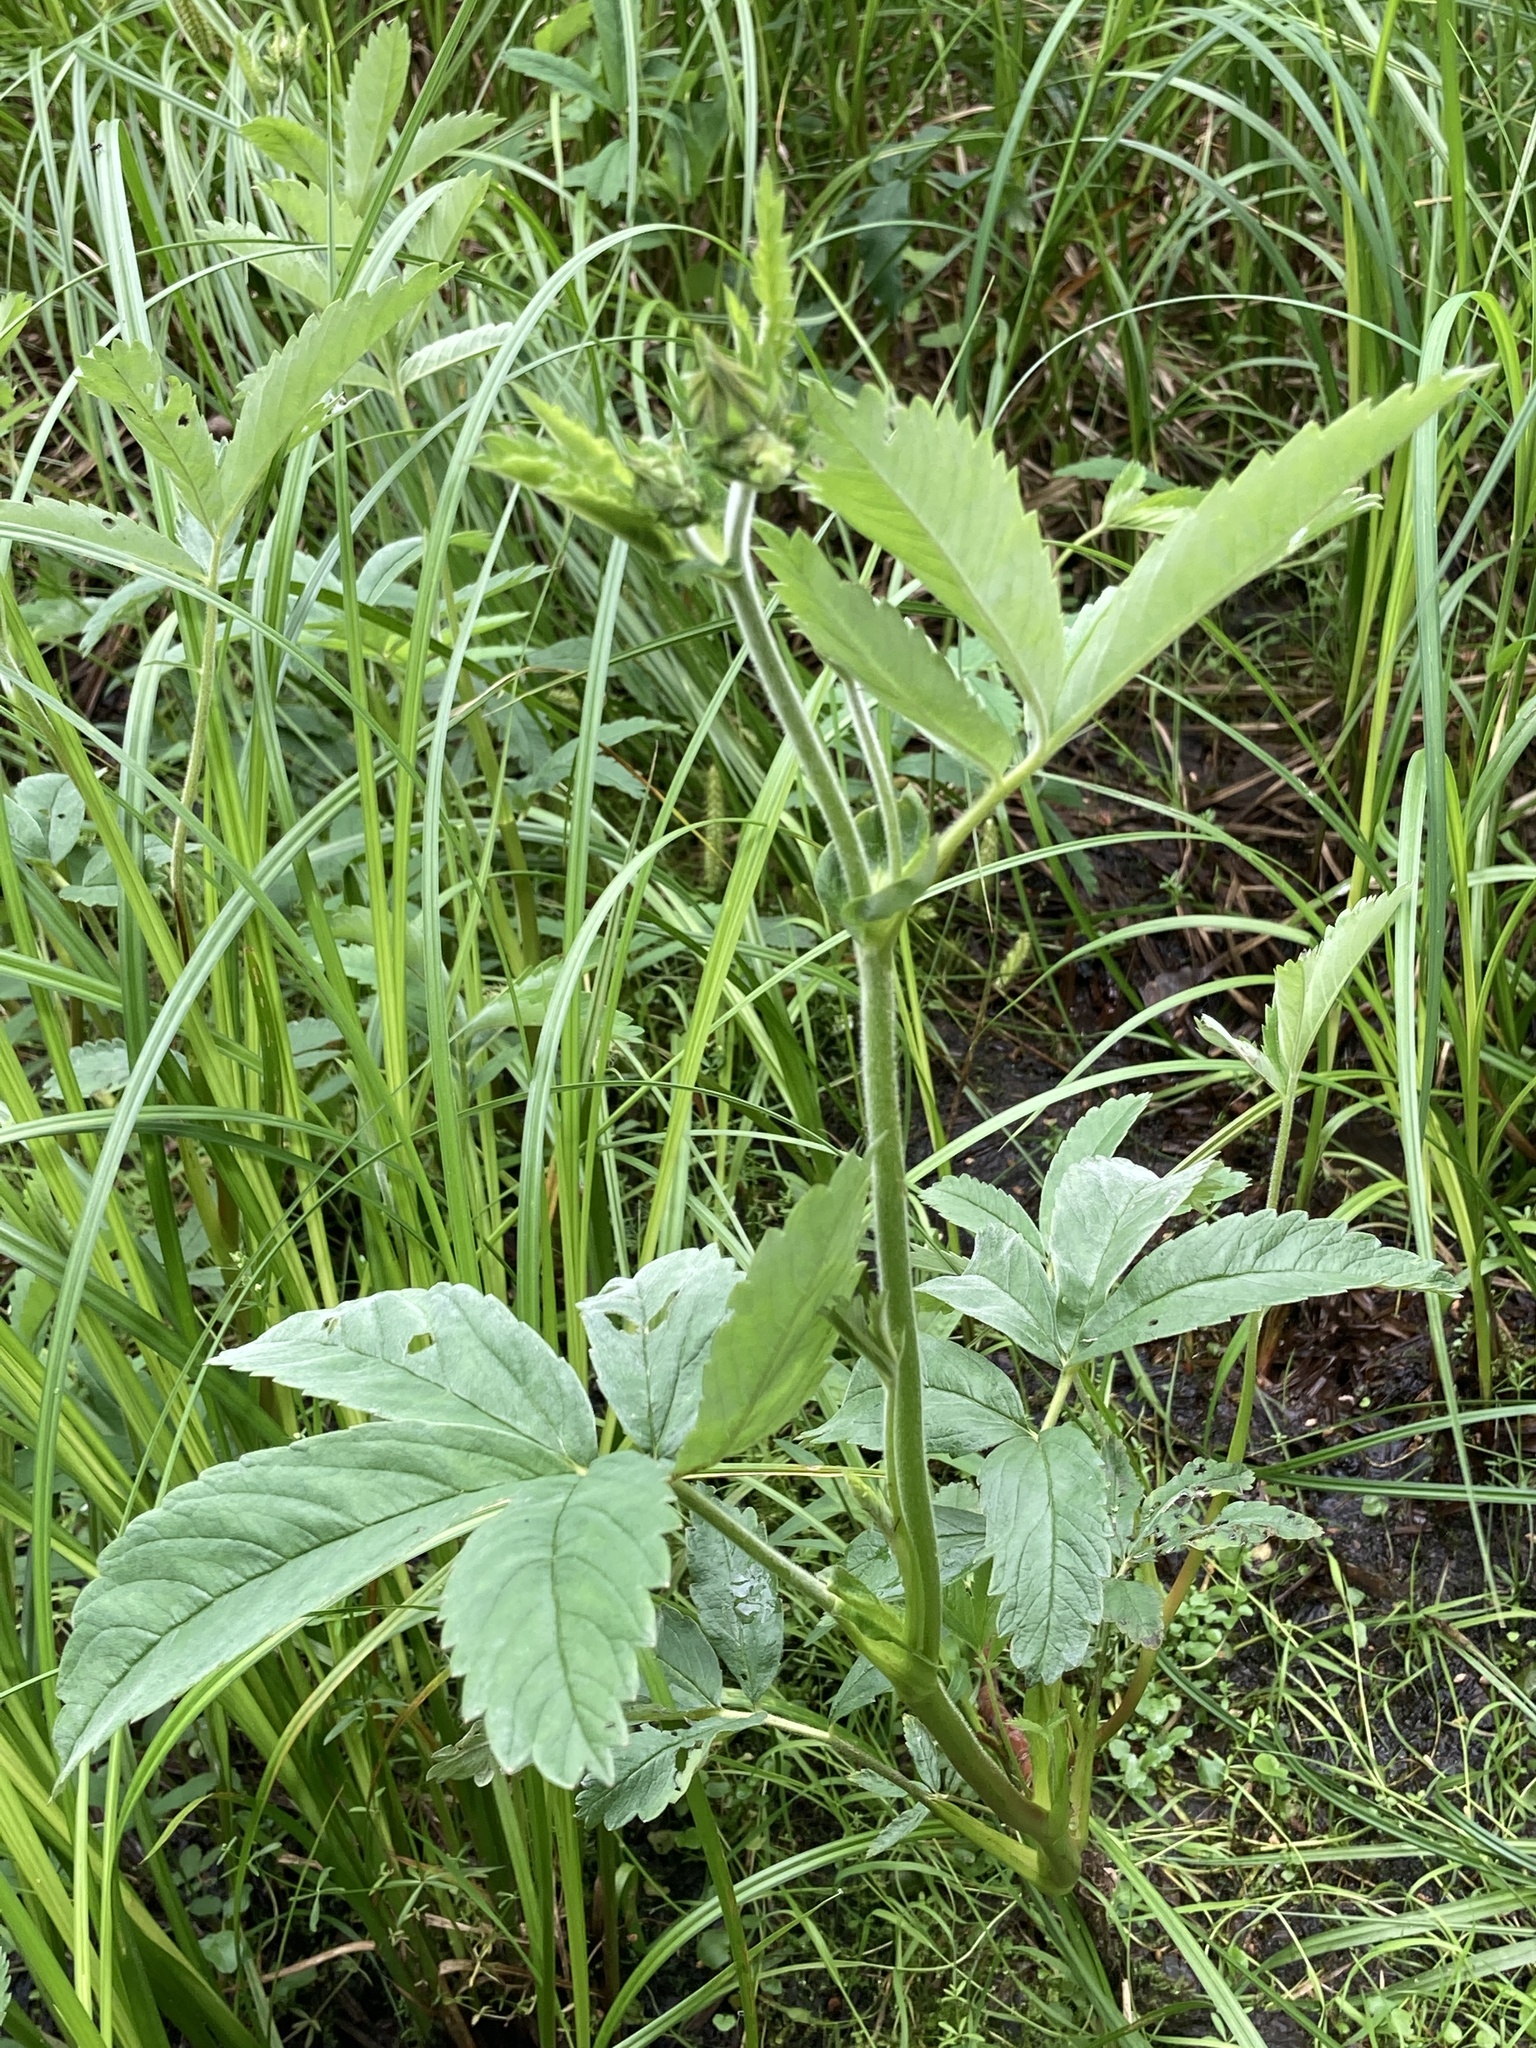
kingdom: Plantae
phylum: Tracheophyta
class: Magnoliopsida
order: Rosales
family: Rosaceae
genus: Comarum
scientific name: Comarum palustre
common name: Marsh cinquefoil
